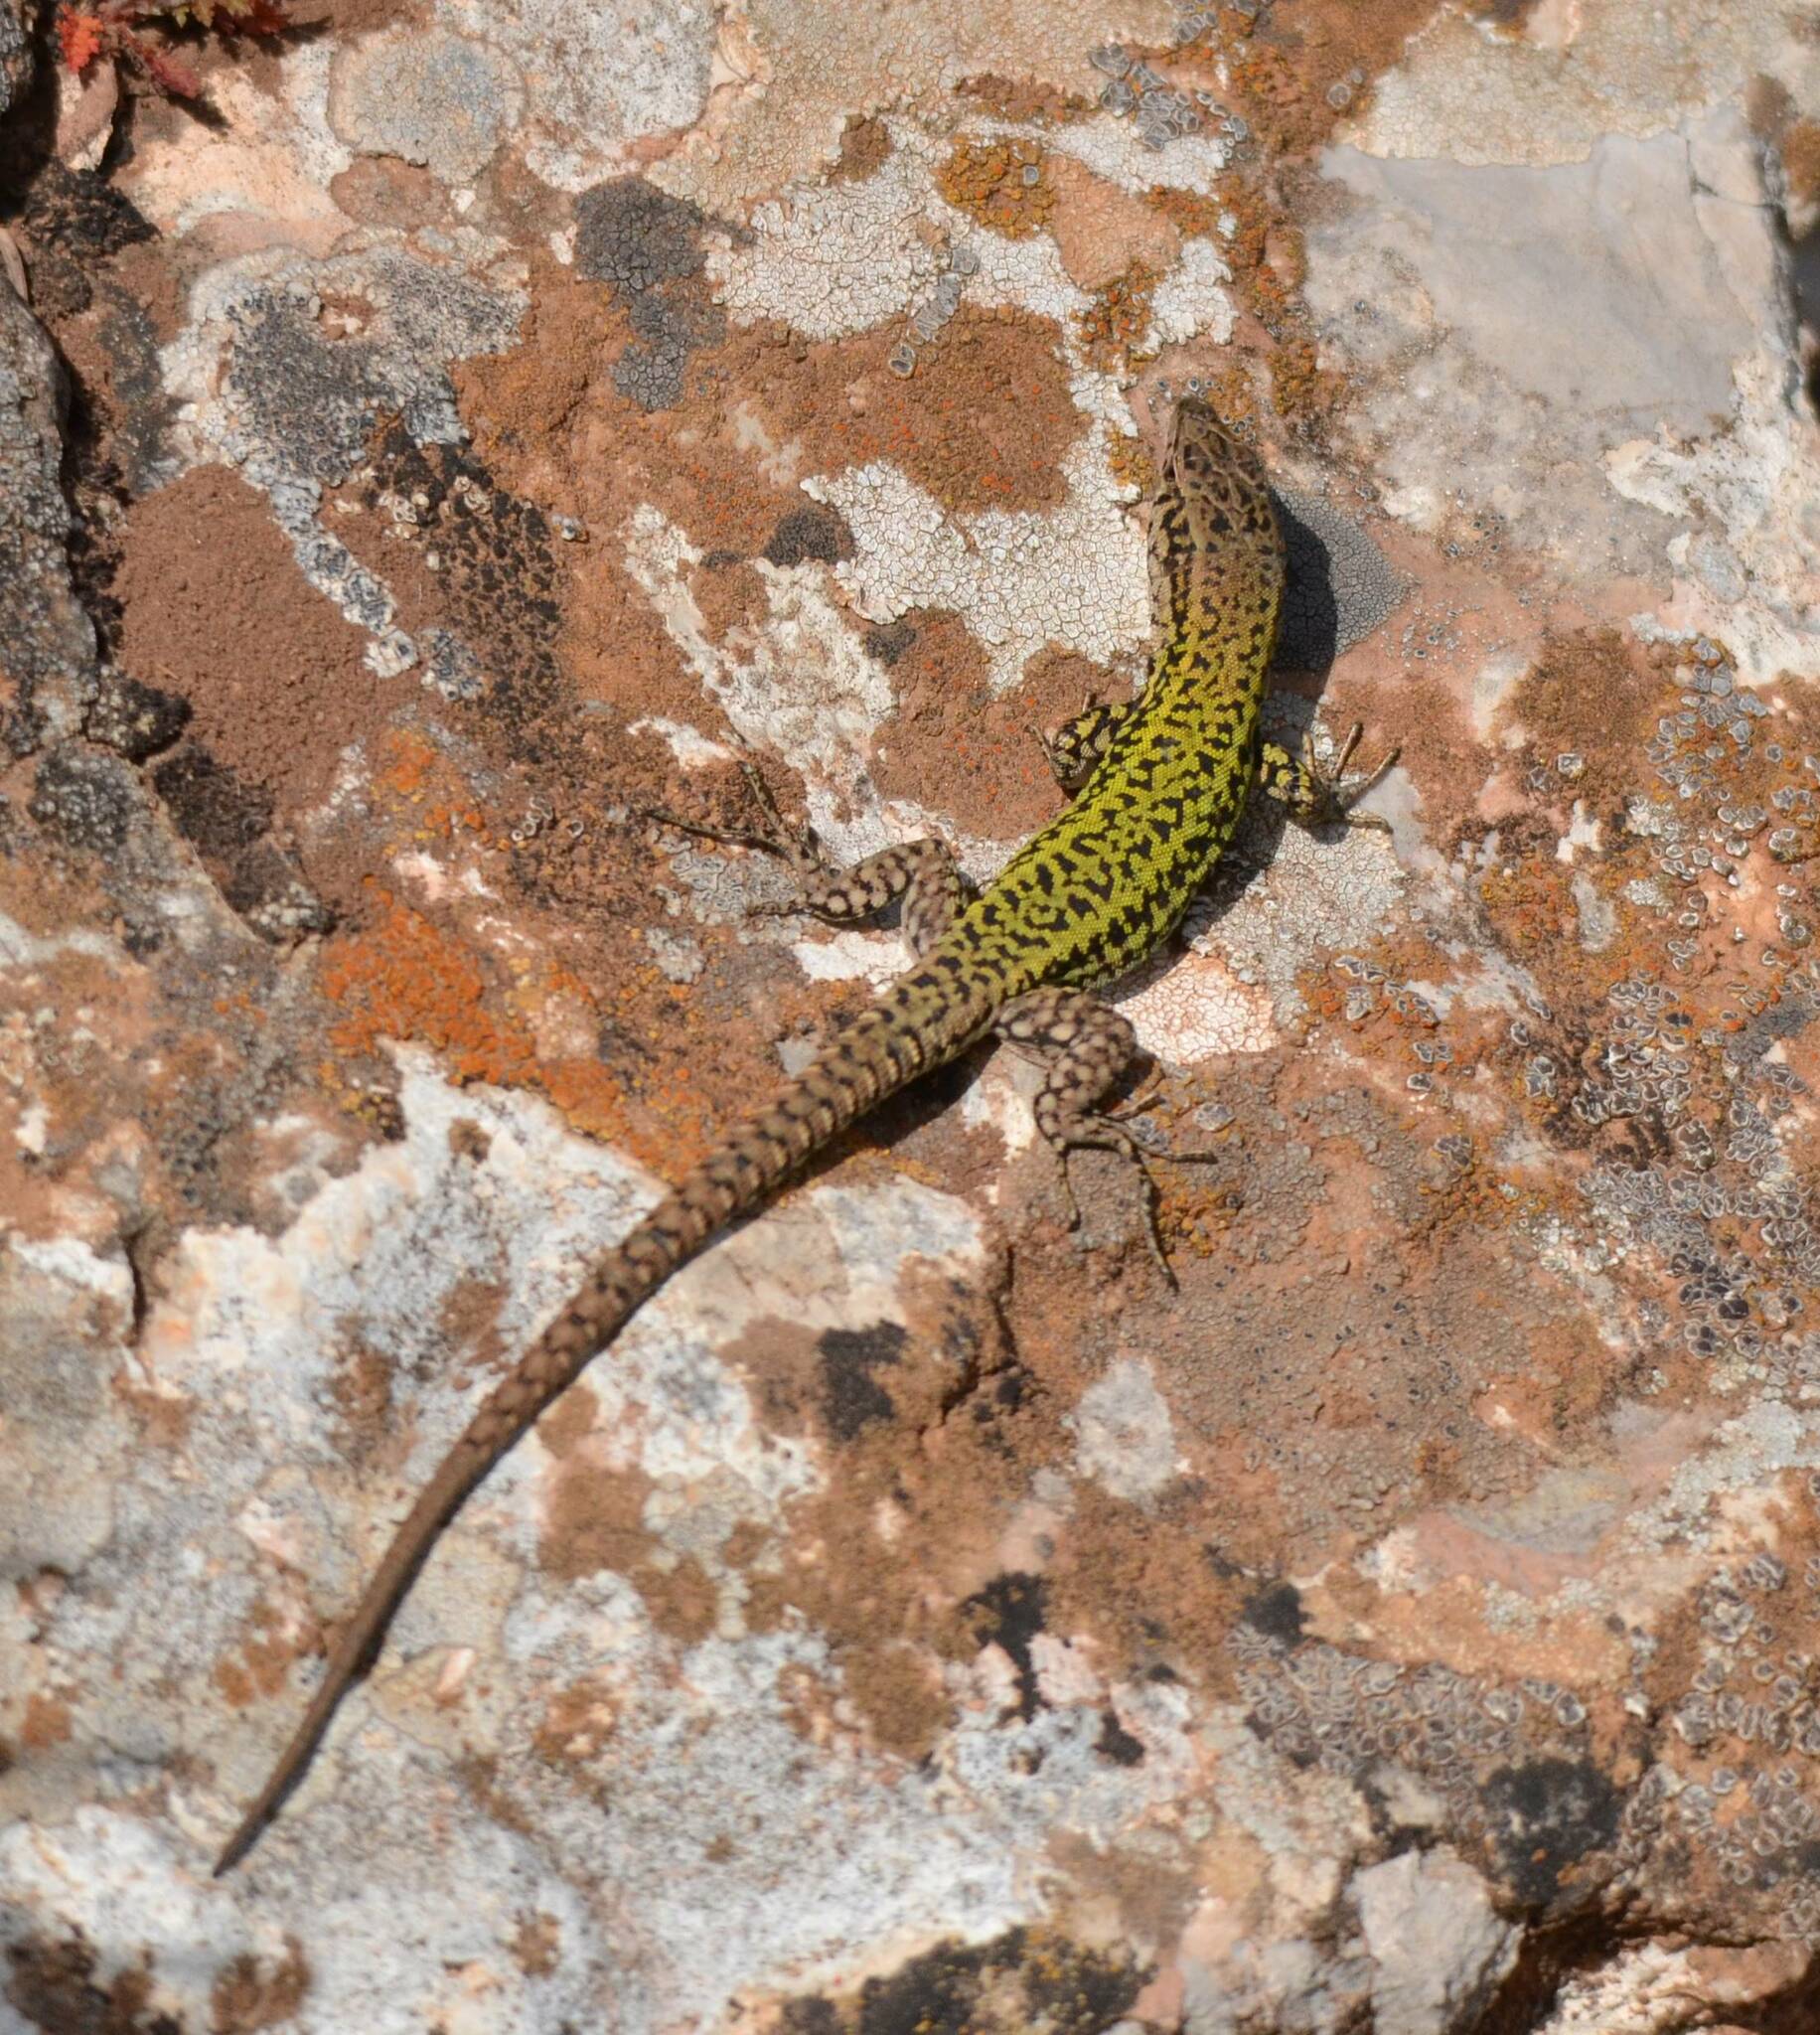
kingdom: Animalia
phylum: Chordata
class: Squamata
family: Lacertidae
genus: Podarcis
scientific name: Podarcis vaucheri
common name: Vaucher's wall lizard
